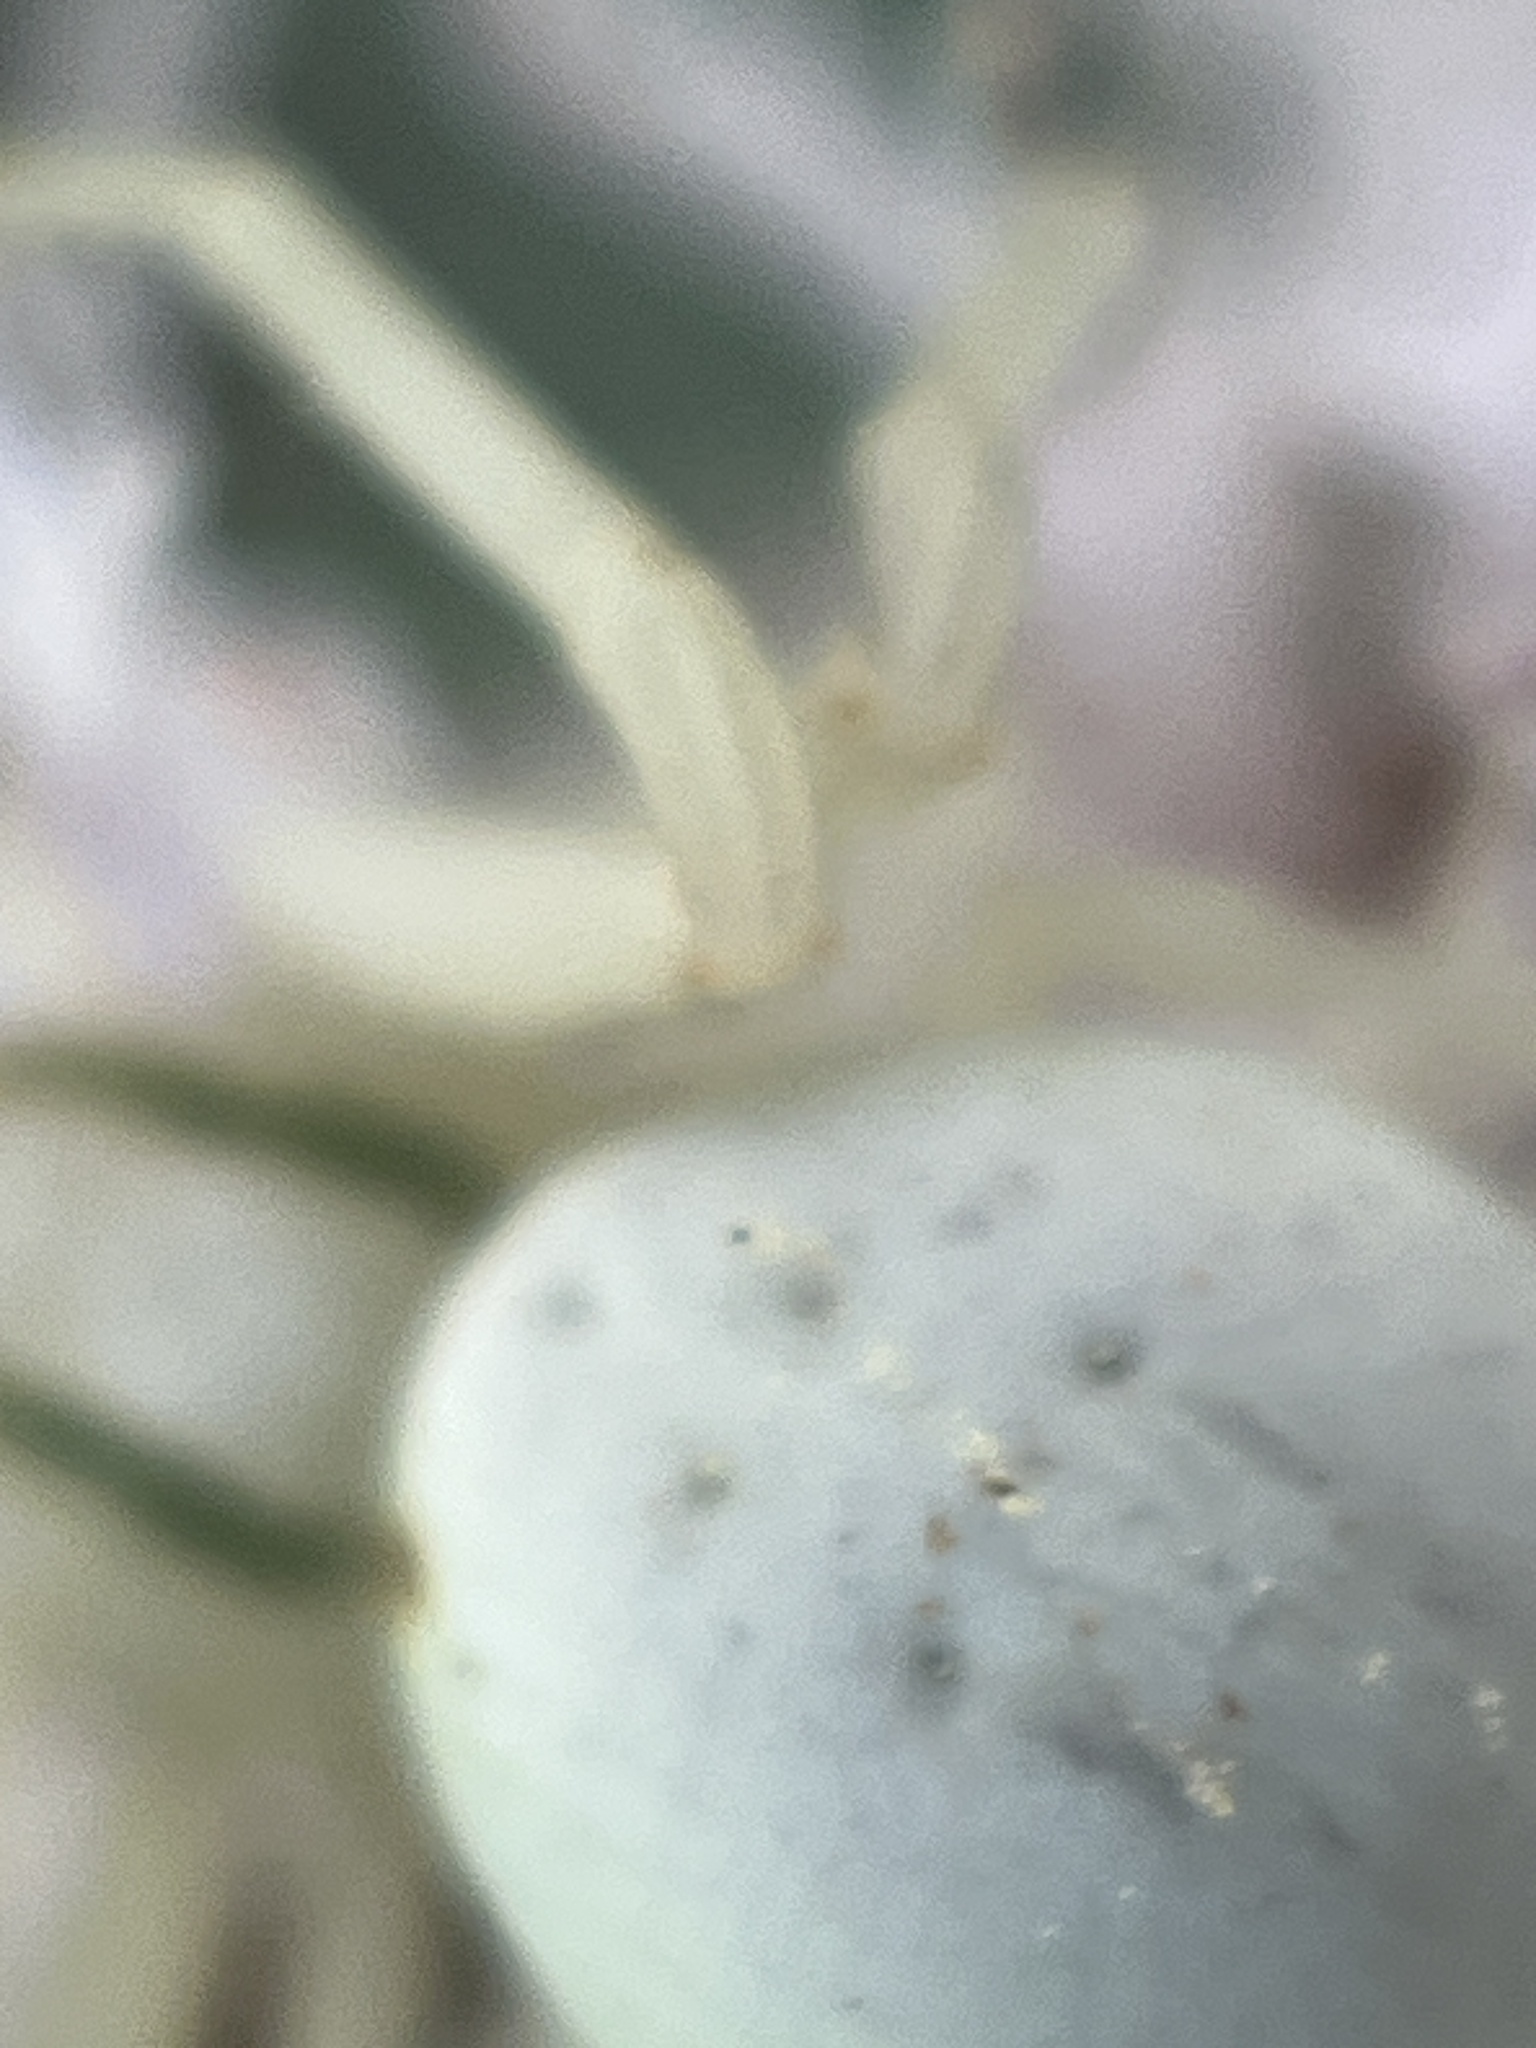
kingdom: Animalia
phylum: Arthropoda
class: Arachnida
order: Araneae
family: Thomisidae
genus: Misumena
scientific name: Misumena vatia
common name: Goldenrod crab spider
